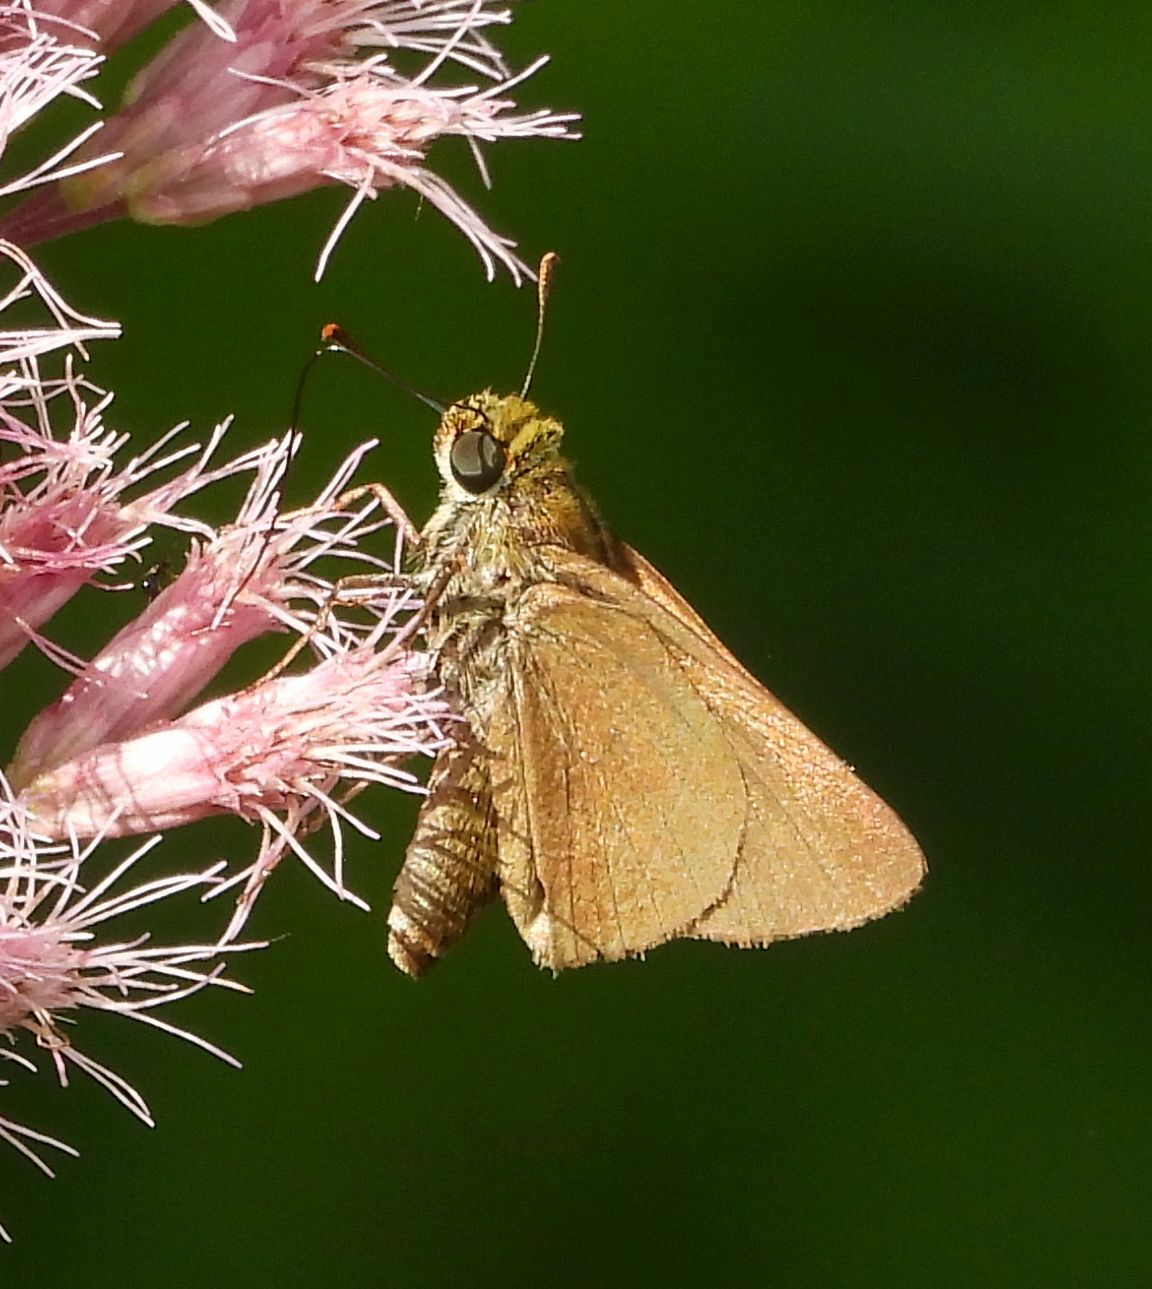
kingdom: Animalia
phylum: Arthropoda
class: Insecta
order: Lepidoptera
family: Hesperiidae
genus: Euphyes
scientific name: Euphyes vestris
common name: Dun skipper
